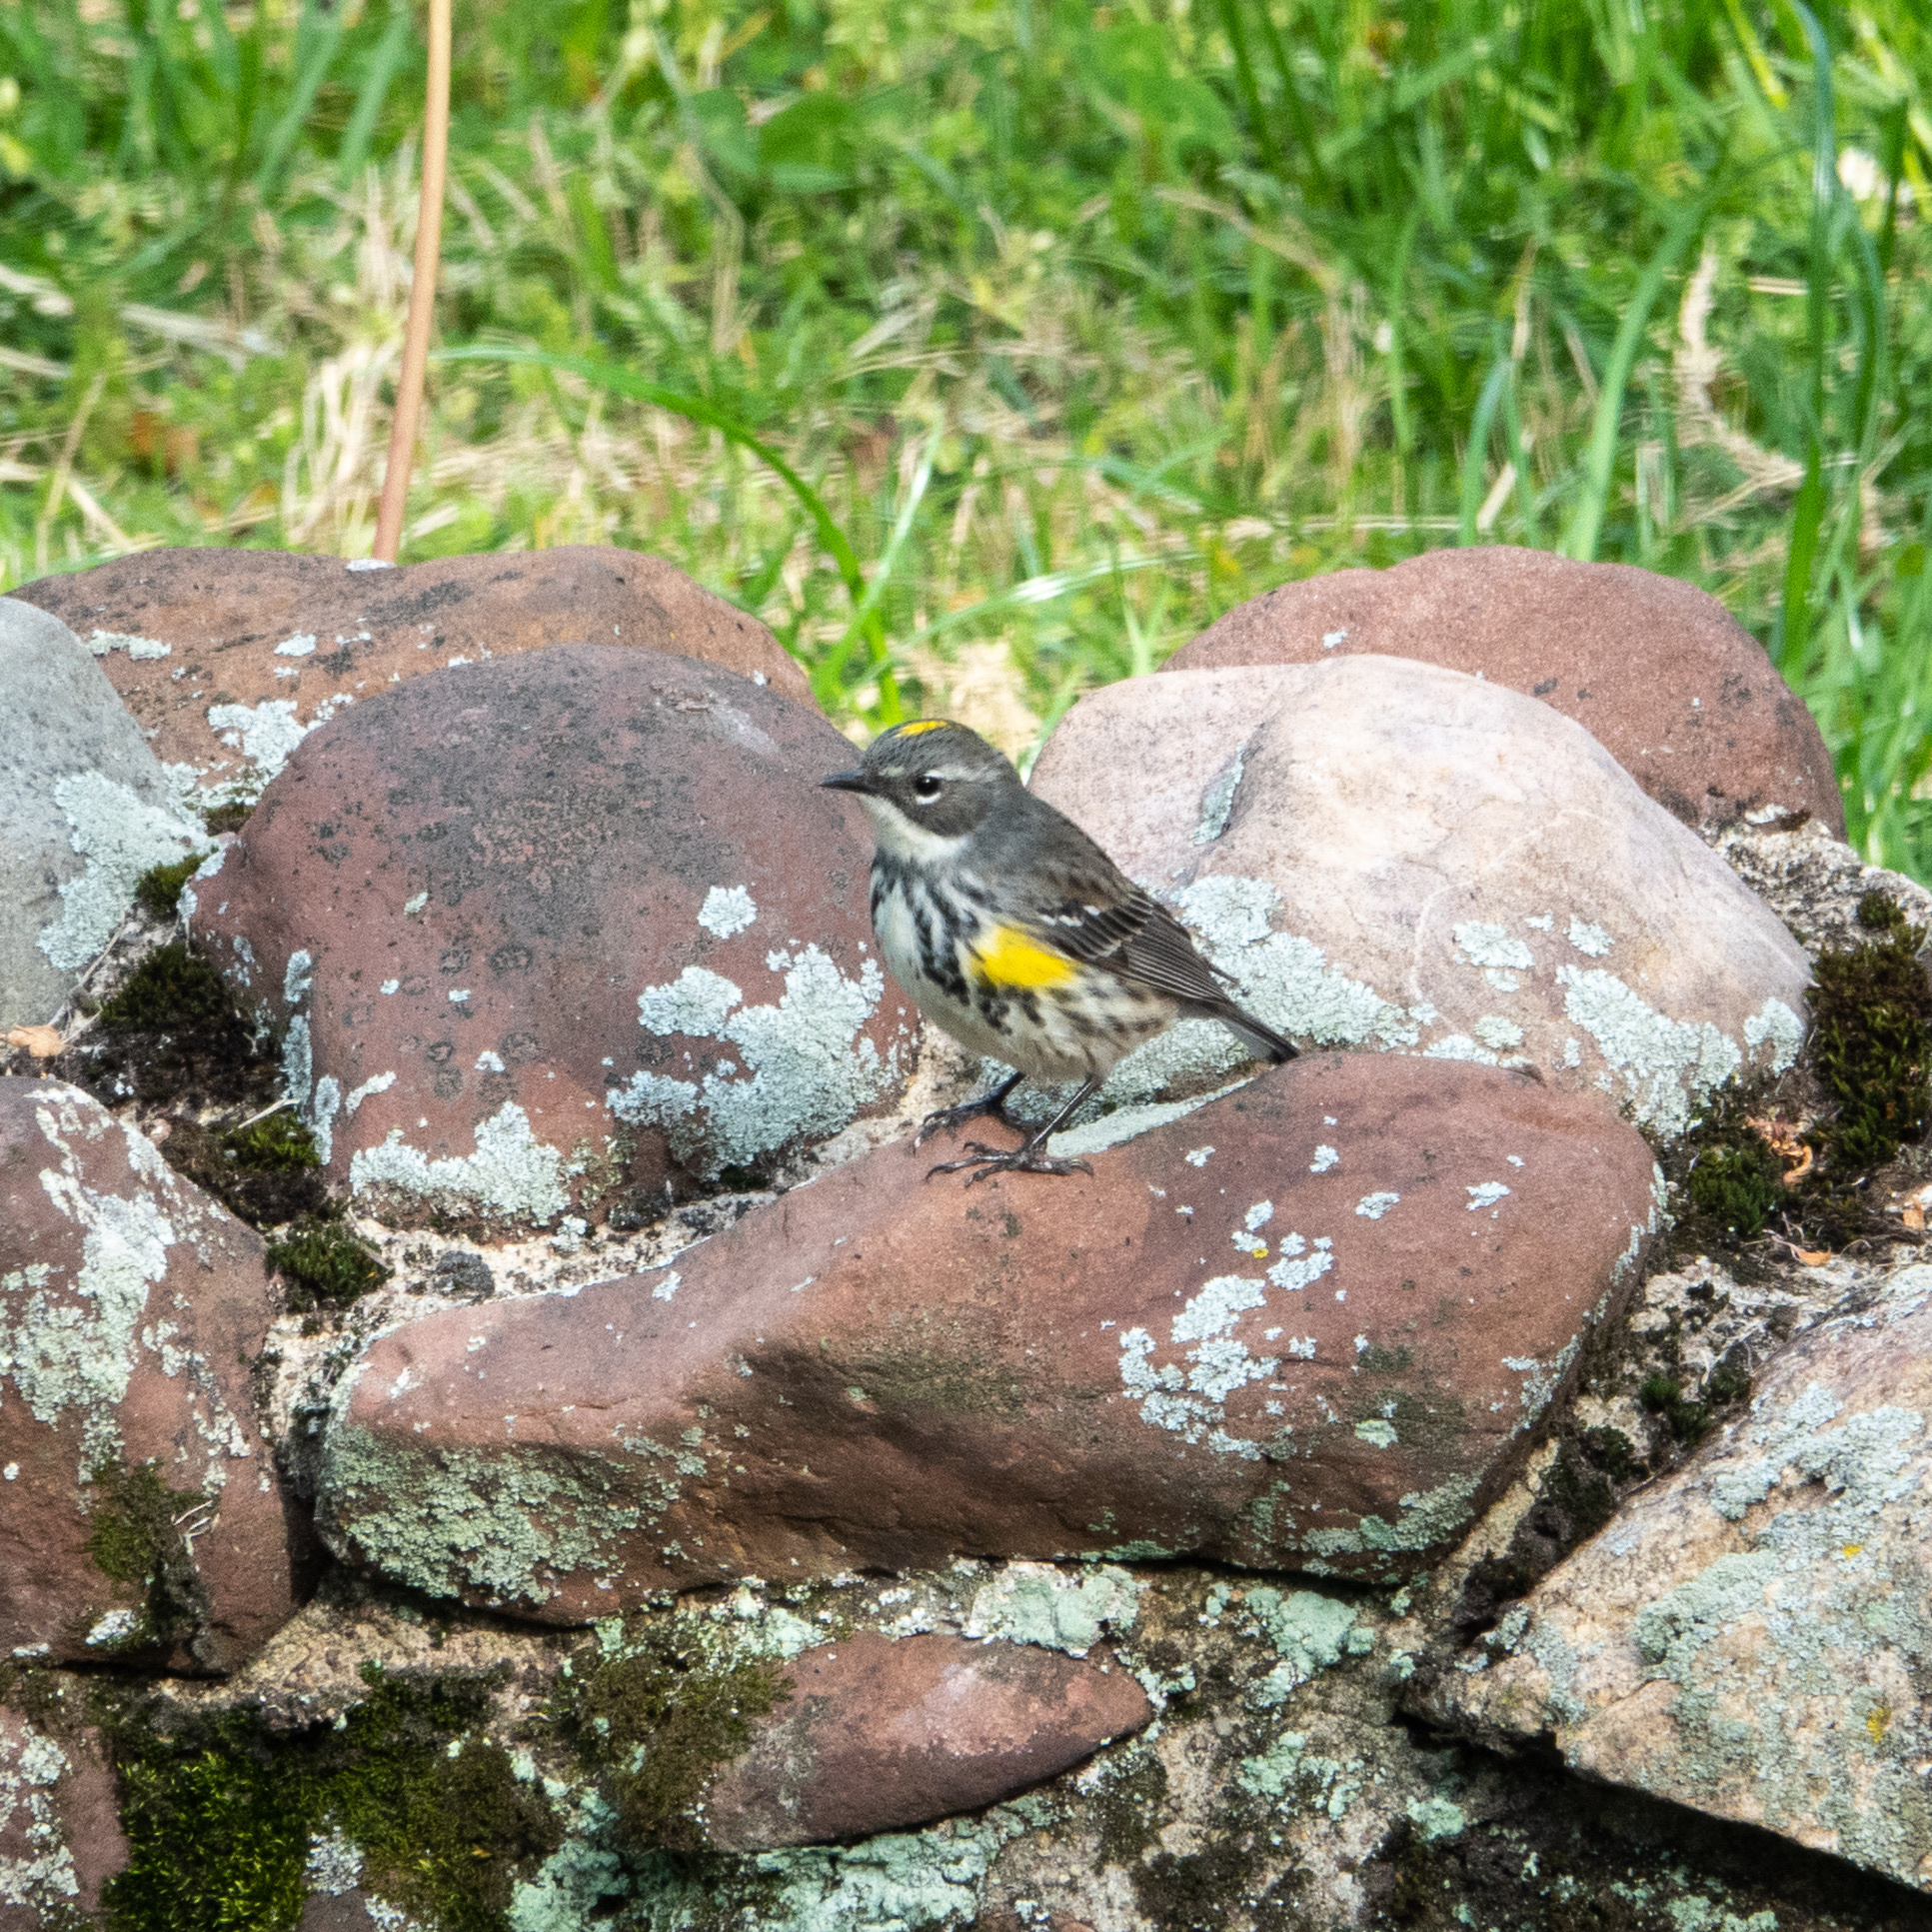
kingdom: Animalia
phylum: Chordata
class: Aves
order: Passeriformes
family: Parulidae
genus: Setophaga
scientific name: Setophaga coronata
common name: Myrtle warbler
